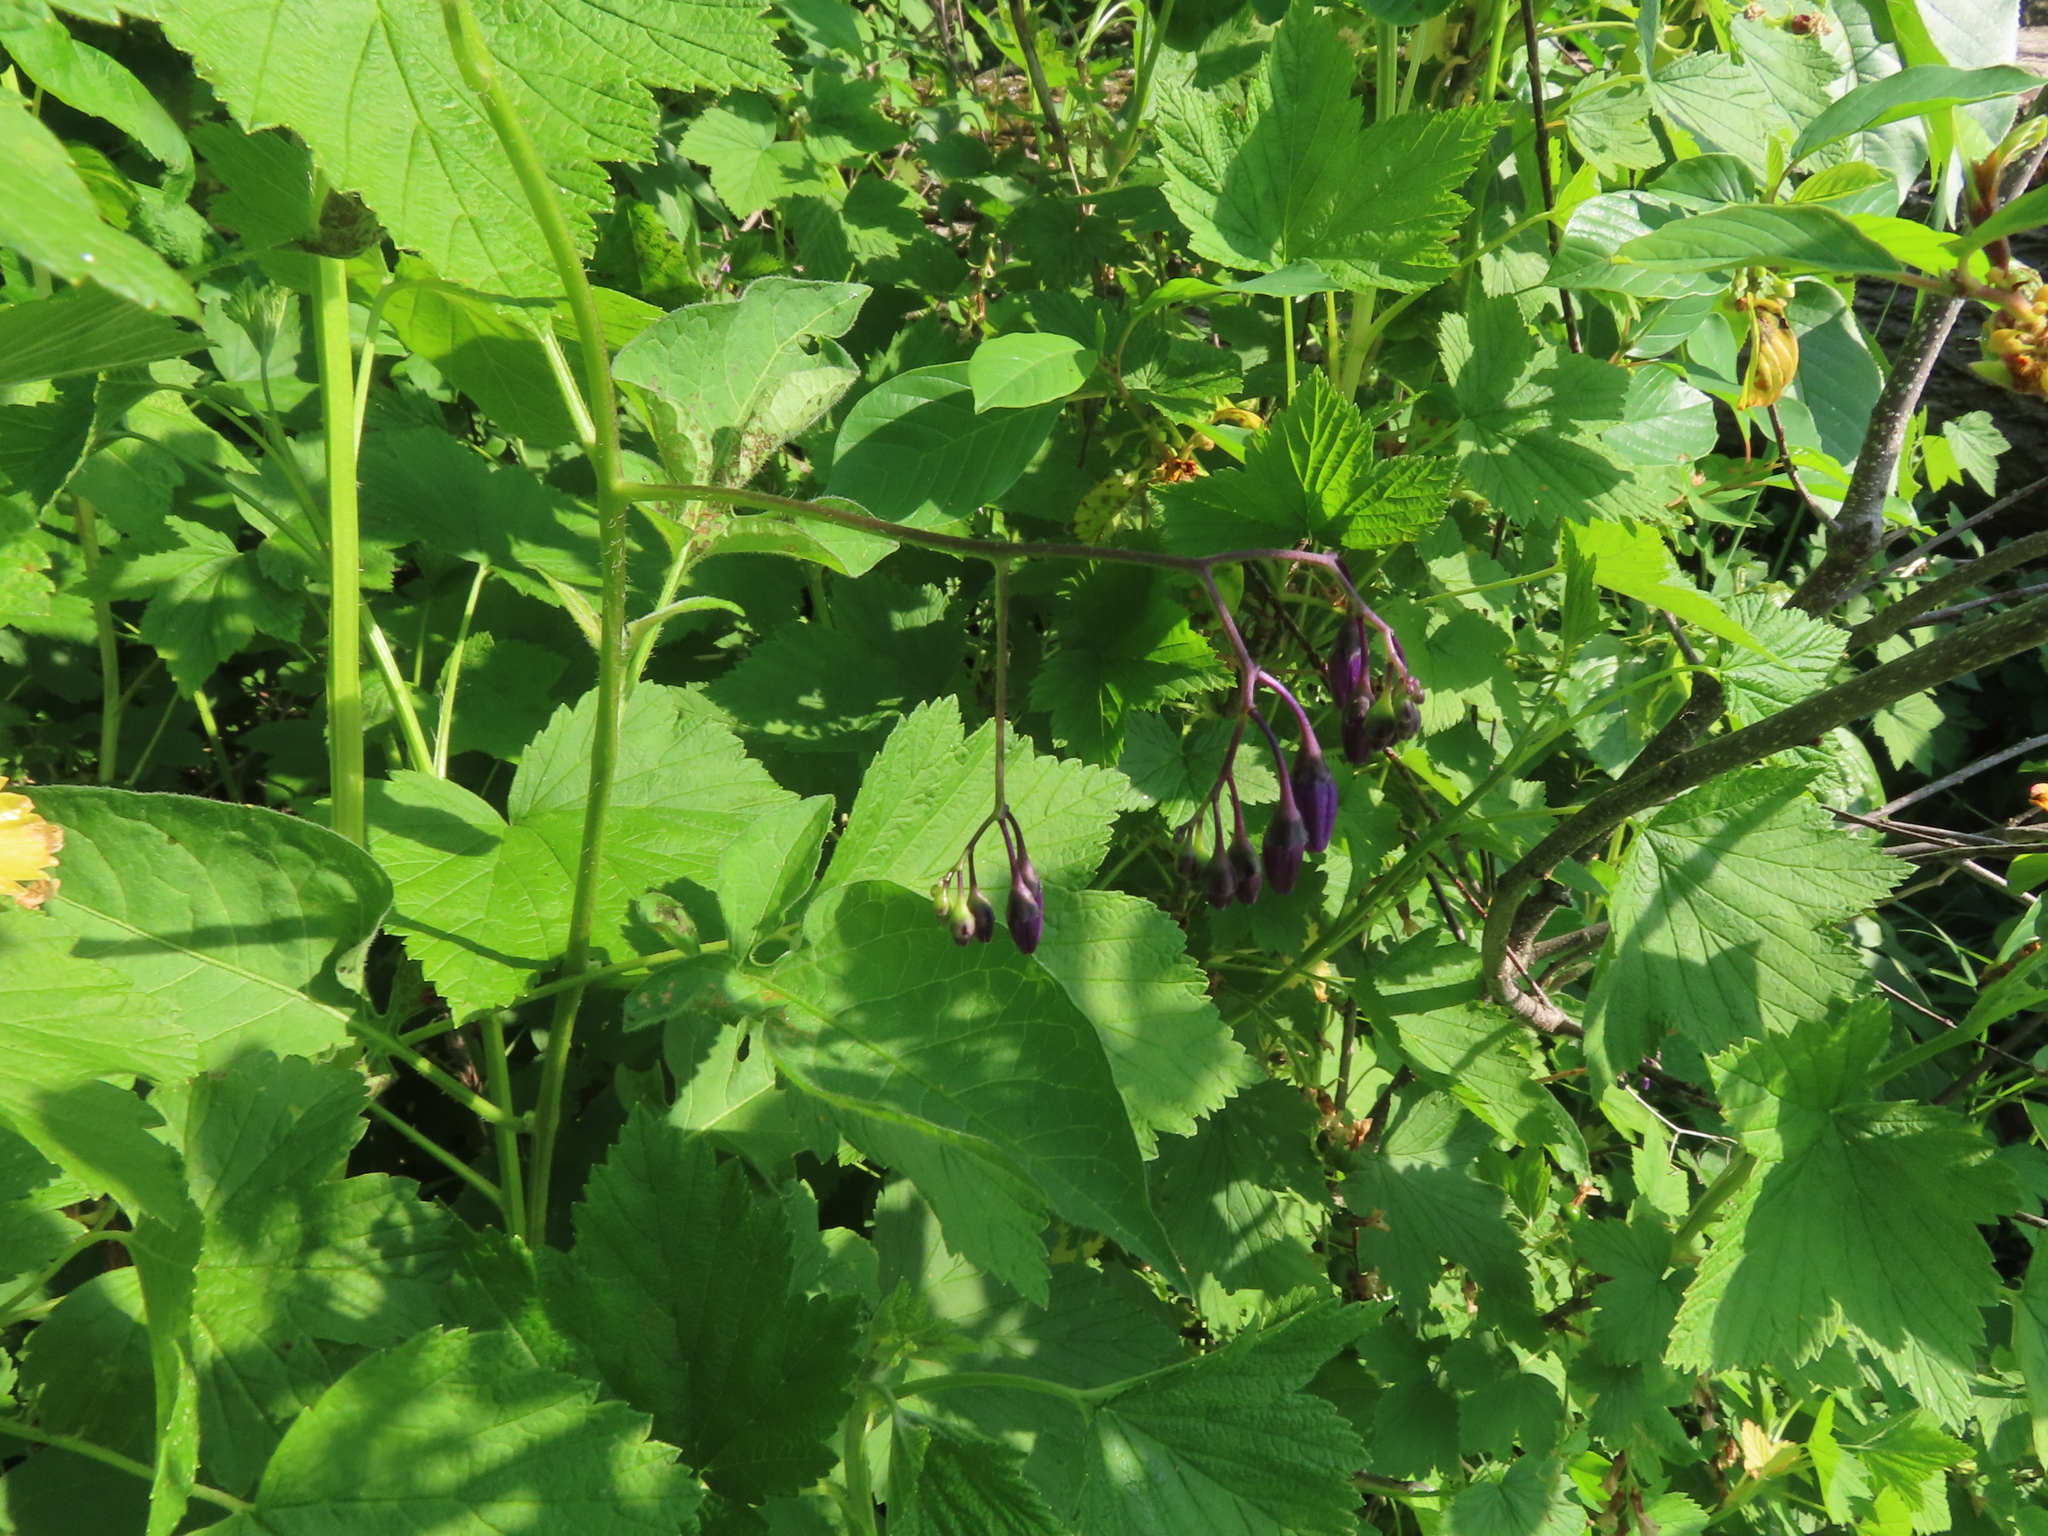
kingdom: Plantae
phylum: Tracheophyta
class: Magnoliopsida
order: Solanales
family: Solanaceae
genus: Solanum
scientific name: Solanum dulcamara
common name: Climbing nightshade
